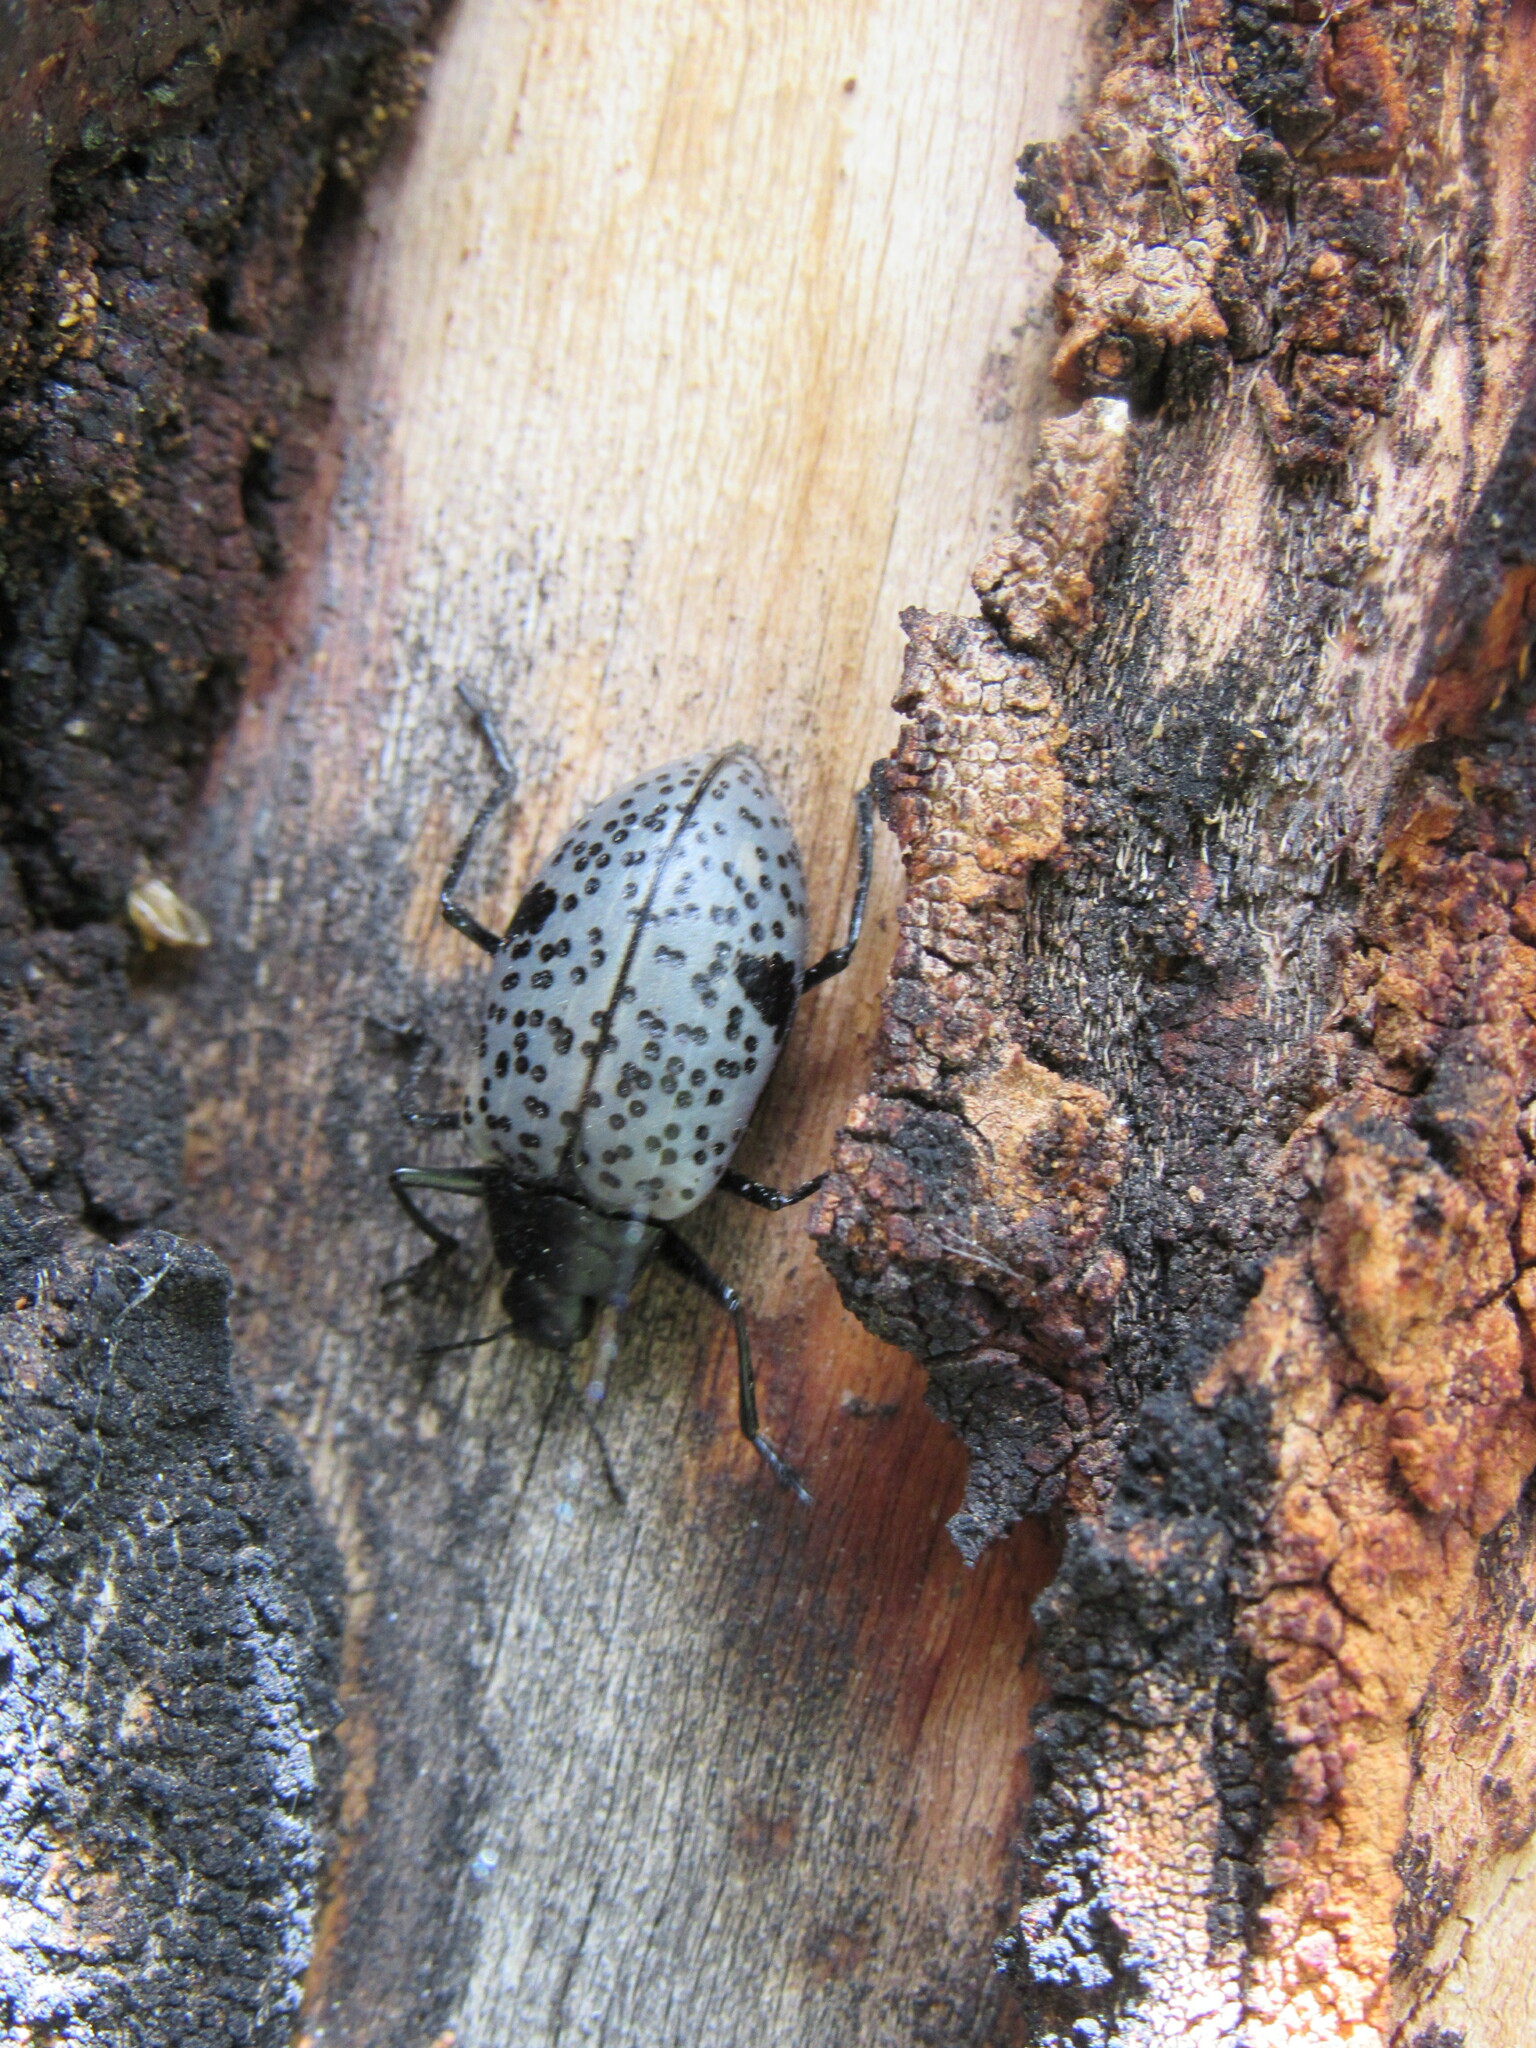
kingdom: Animalia
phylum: Arthropoda
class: Insecta
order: Coleoptera
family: Erotylidae
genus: Gibbifer
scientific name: Gibbifer californicus
